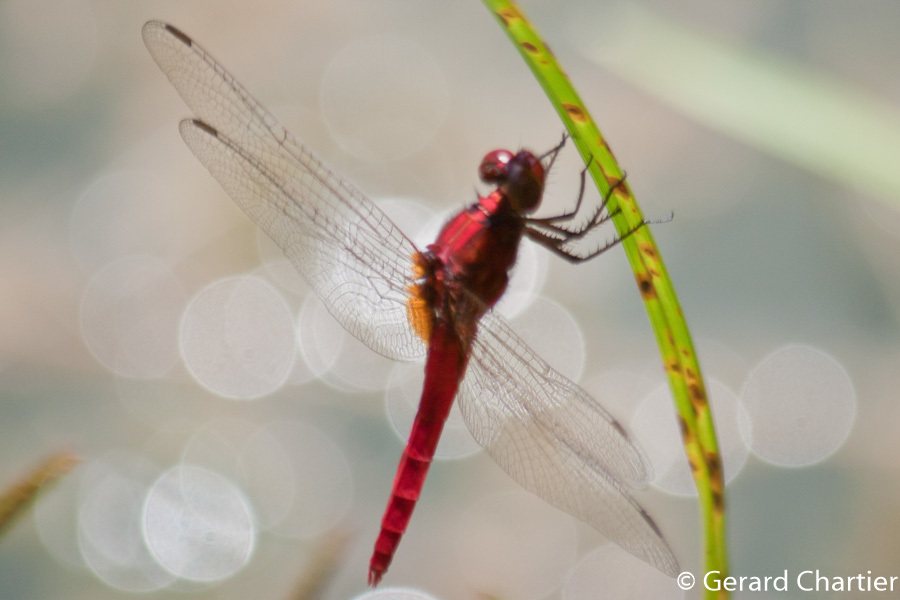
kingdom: Animalia
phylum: Arthropoda
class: Insecta
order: Odonata
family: Libellulidae
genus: Rhodothemis
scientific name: Rhodothemis rufa
